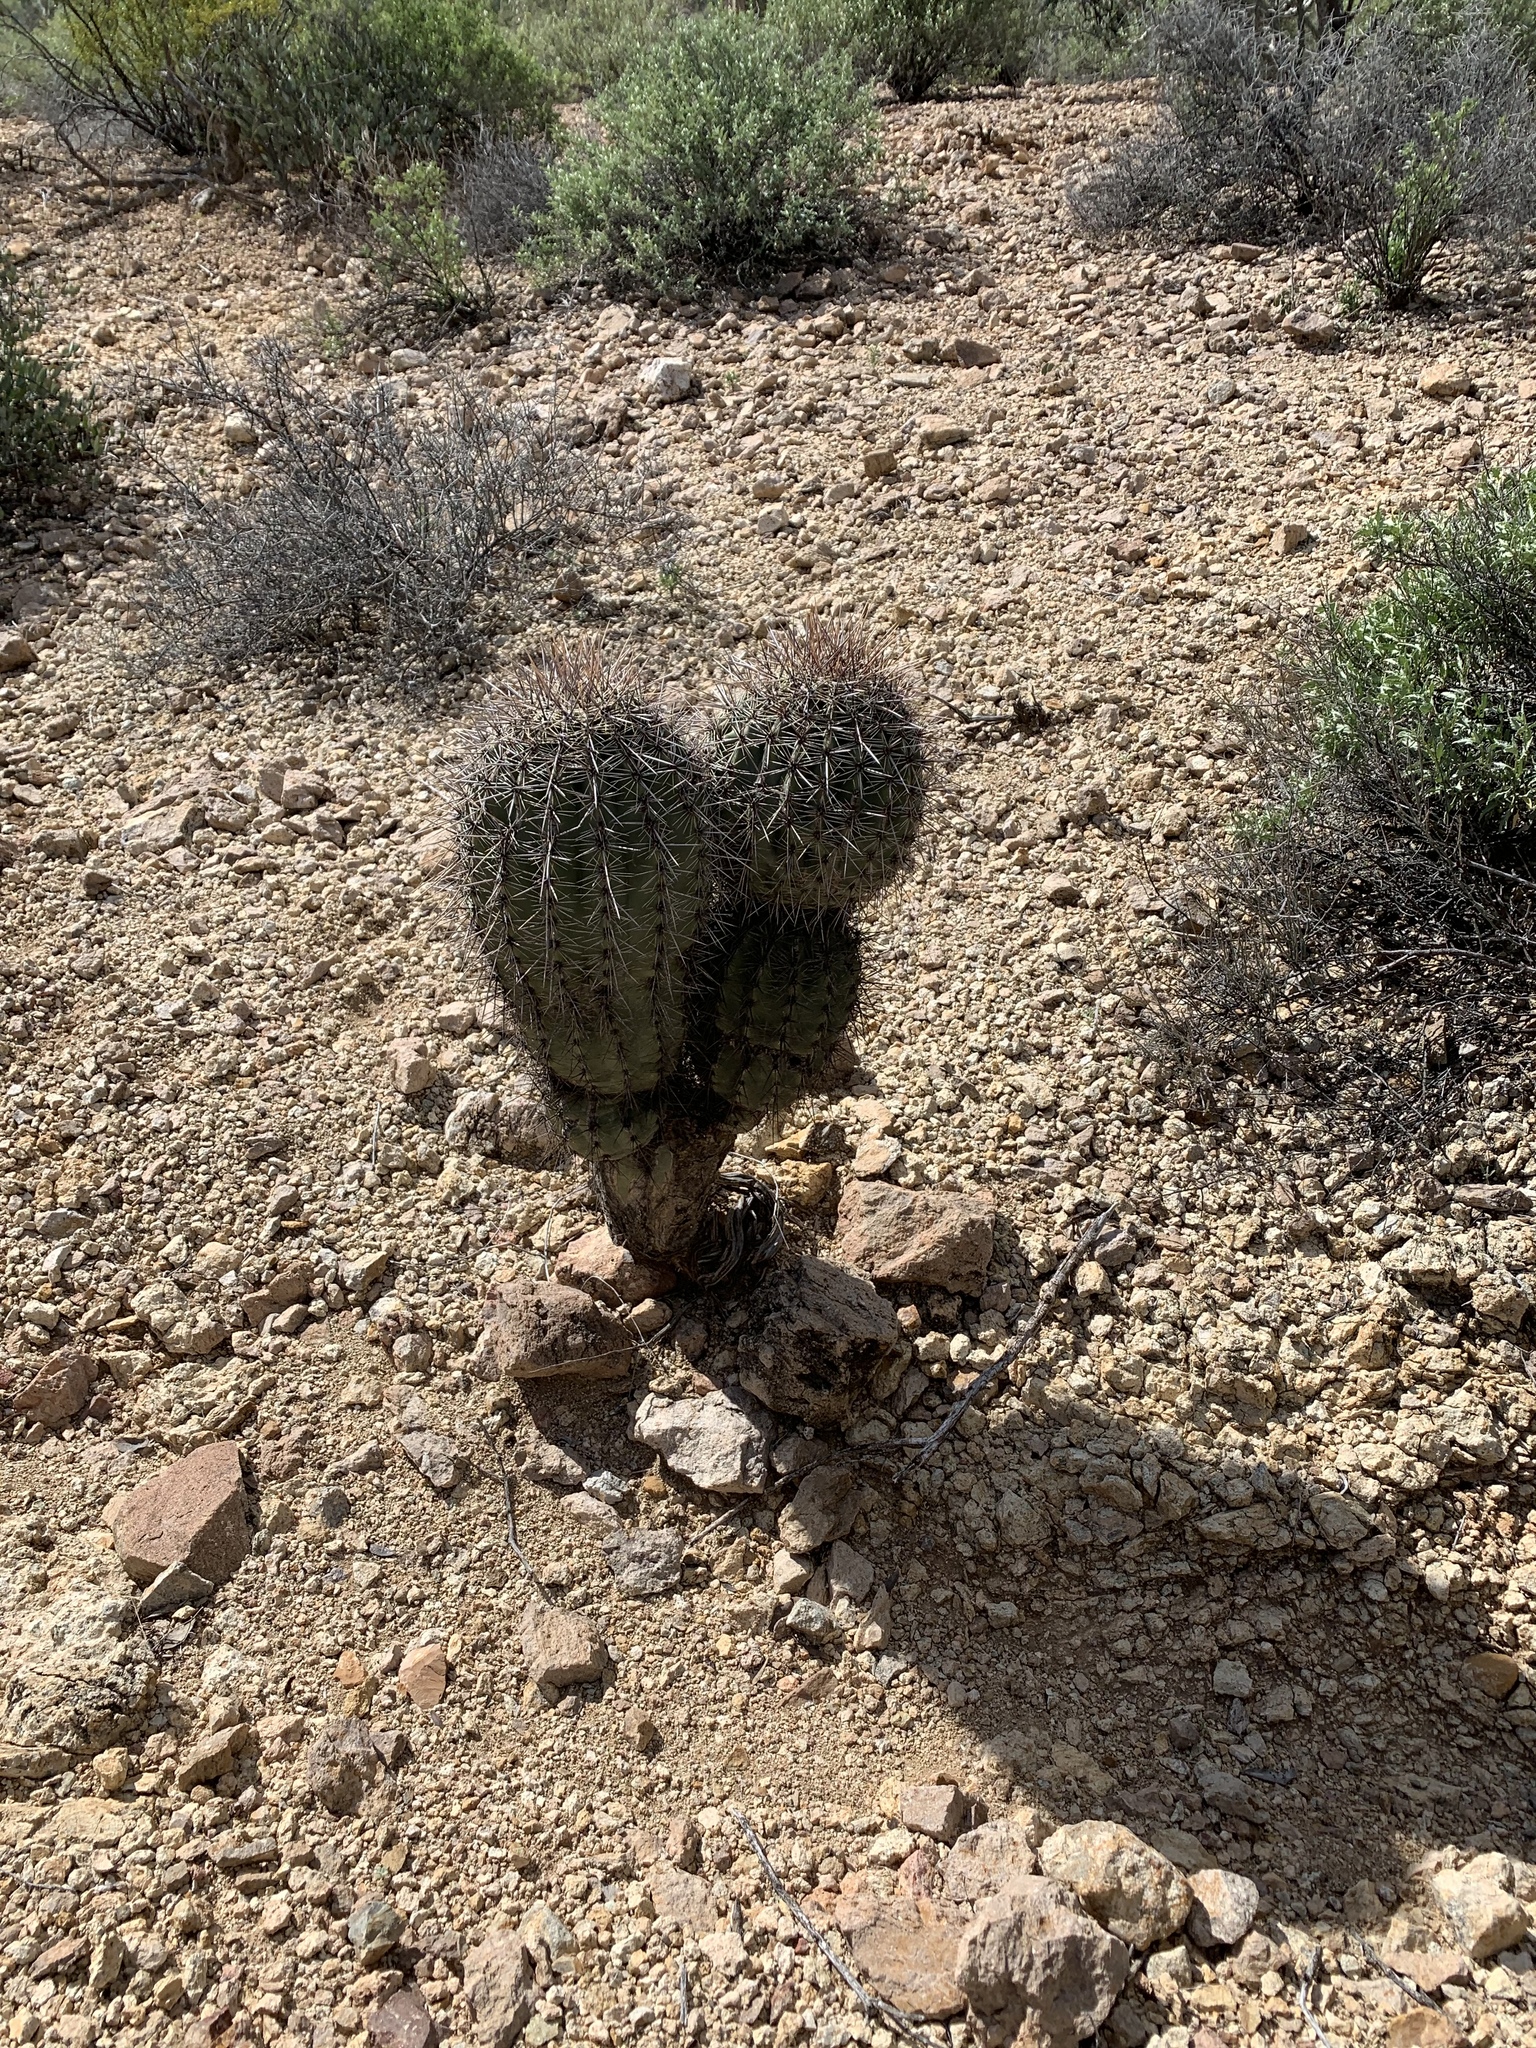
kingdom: Plantae
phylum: Tracheophyta
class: Magnoliopsida
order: Caryophyllales
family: Cactaceae
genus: Carnegiea
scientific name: Carnegiea gigantea
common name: Saguaro
